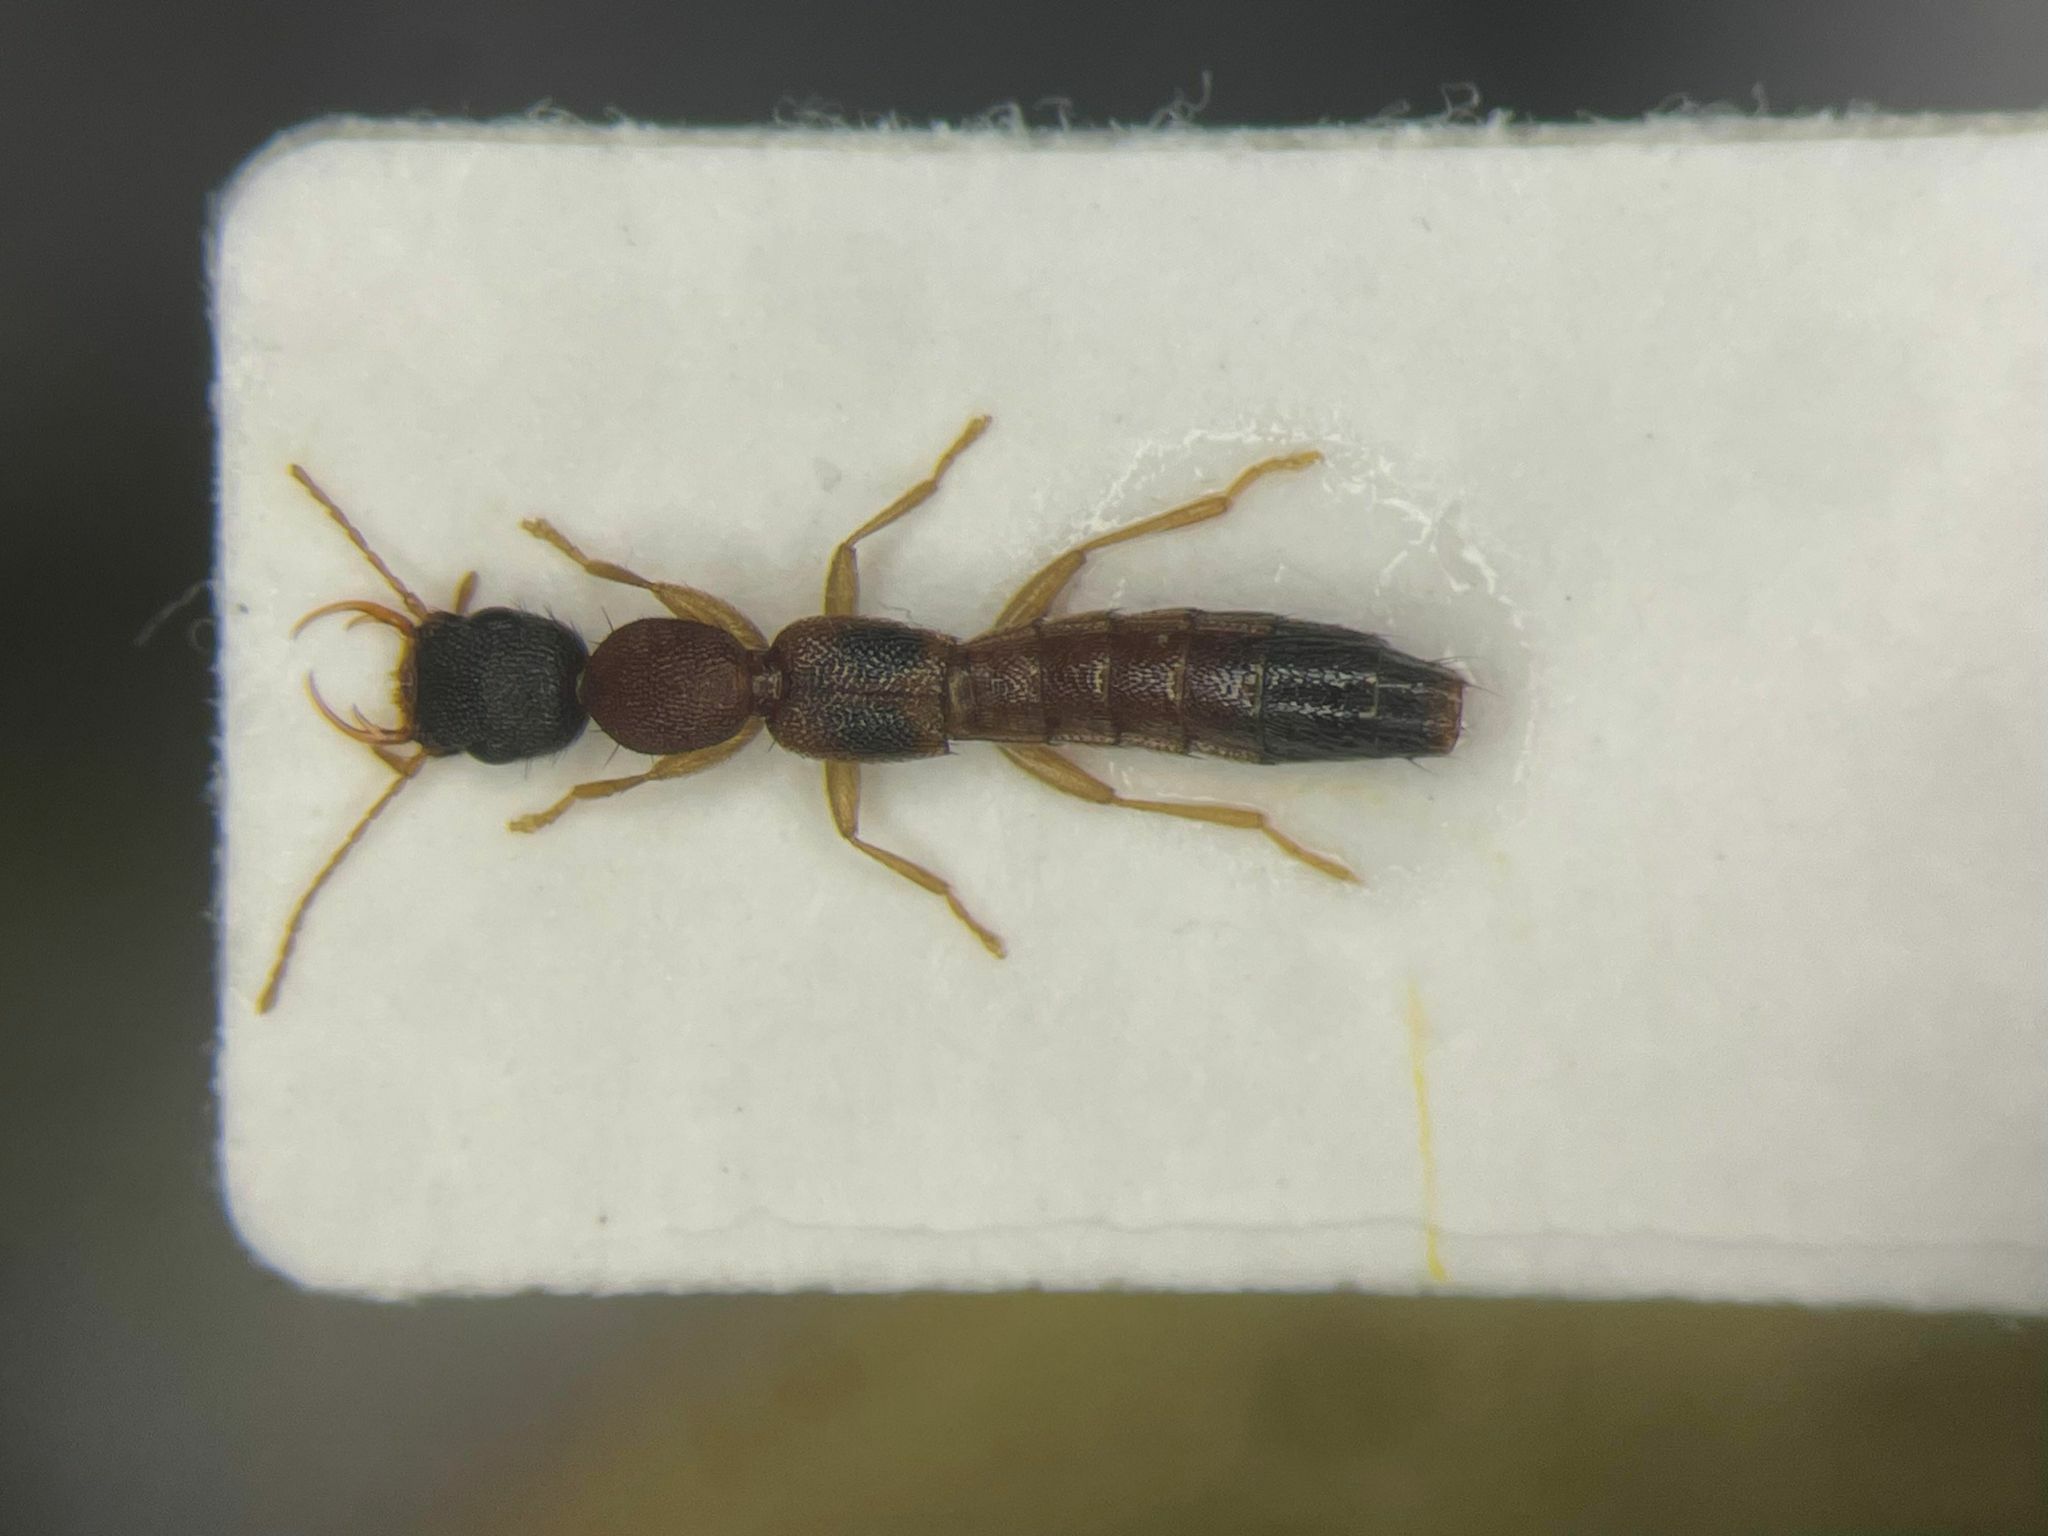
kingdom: Animalia
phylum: Arthropoda
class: Insecta
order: Coleoptera
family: Staphylinidae
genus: Astenus
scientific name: Astenus americanus
